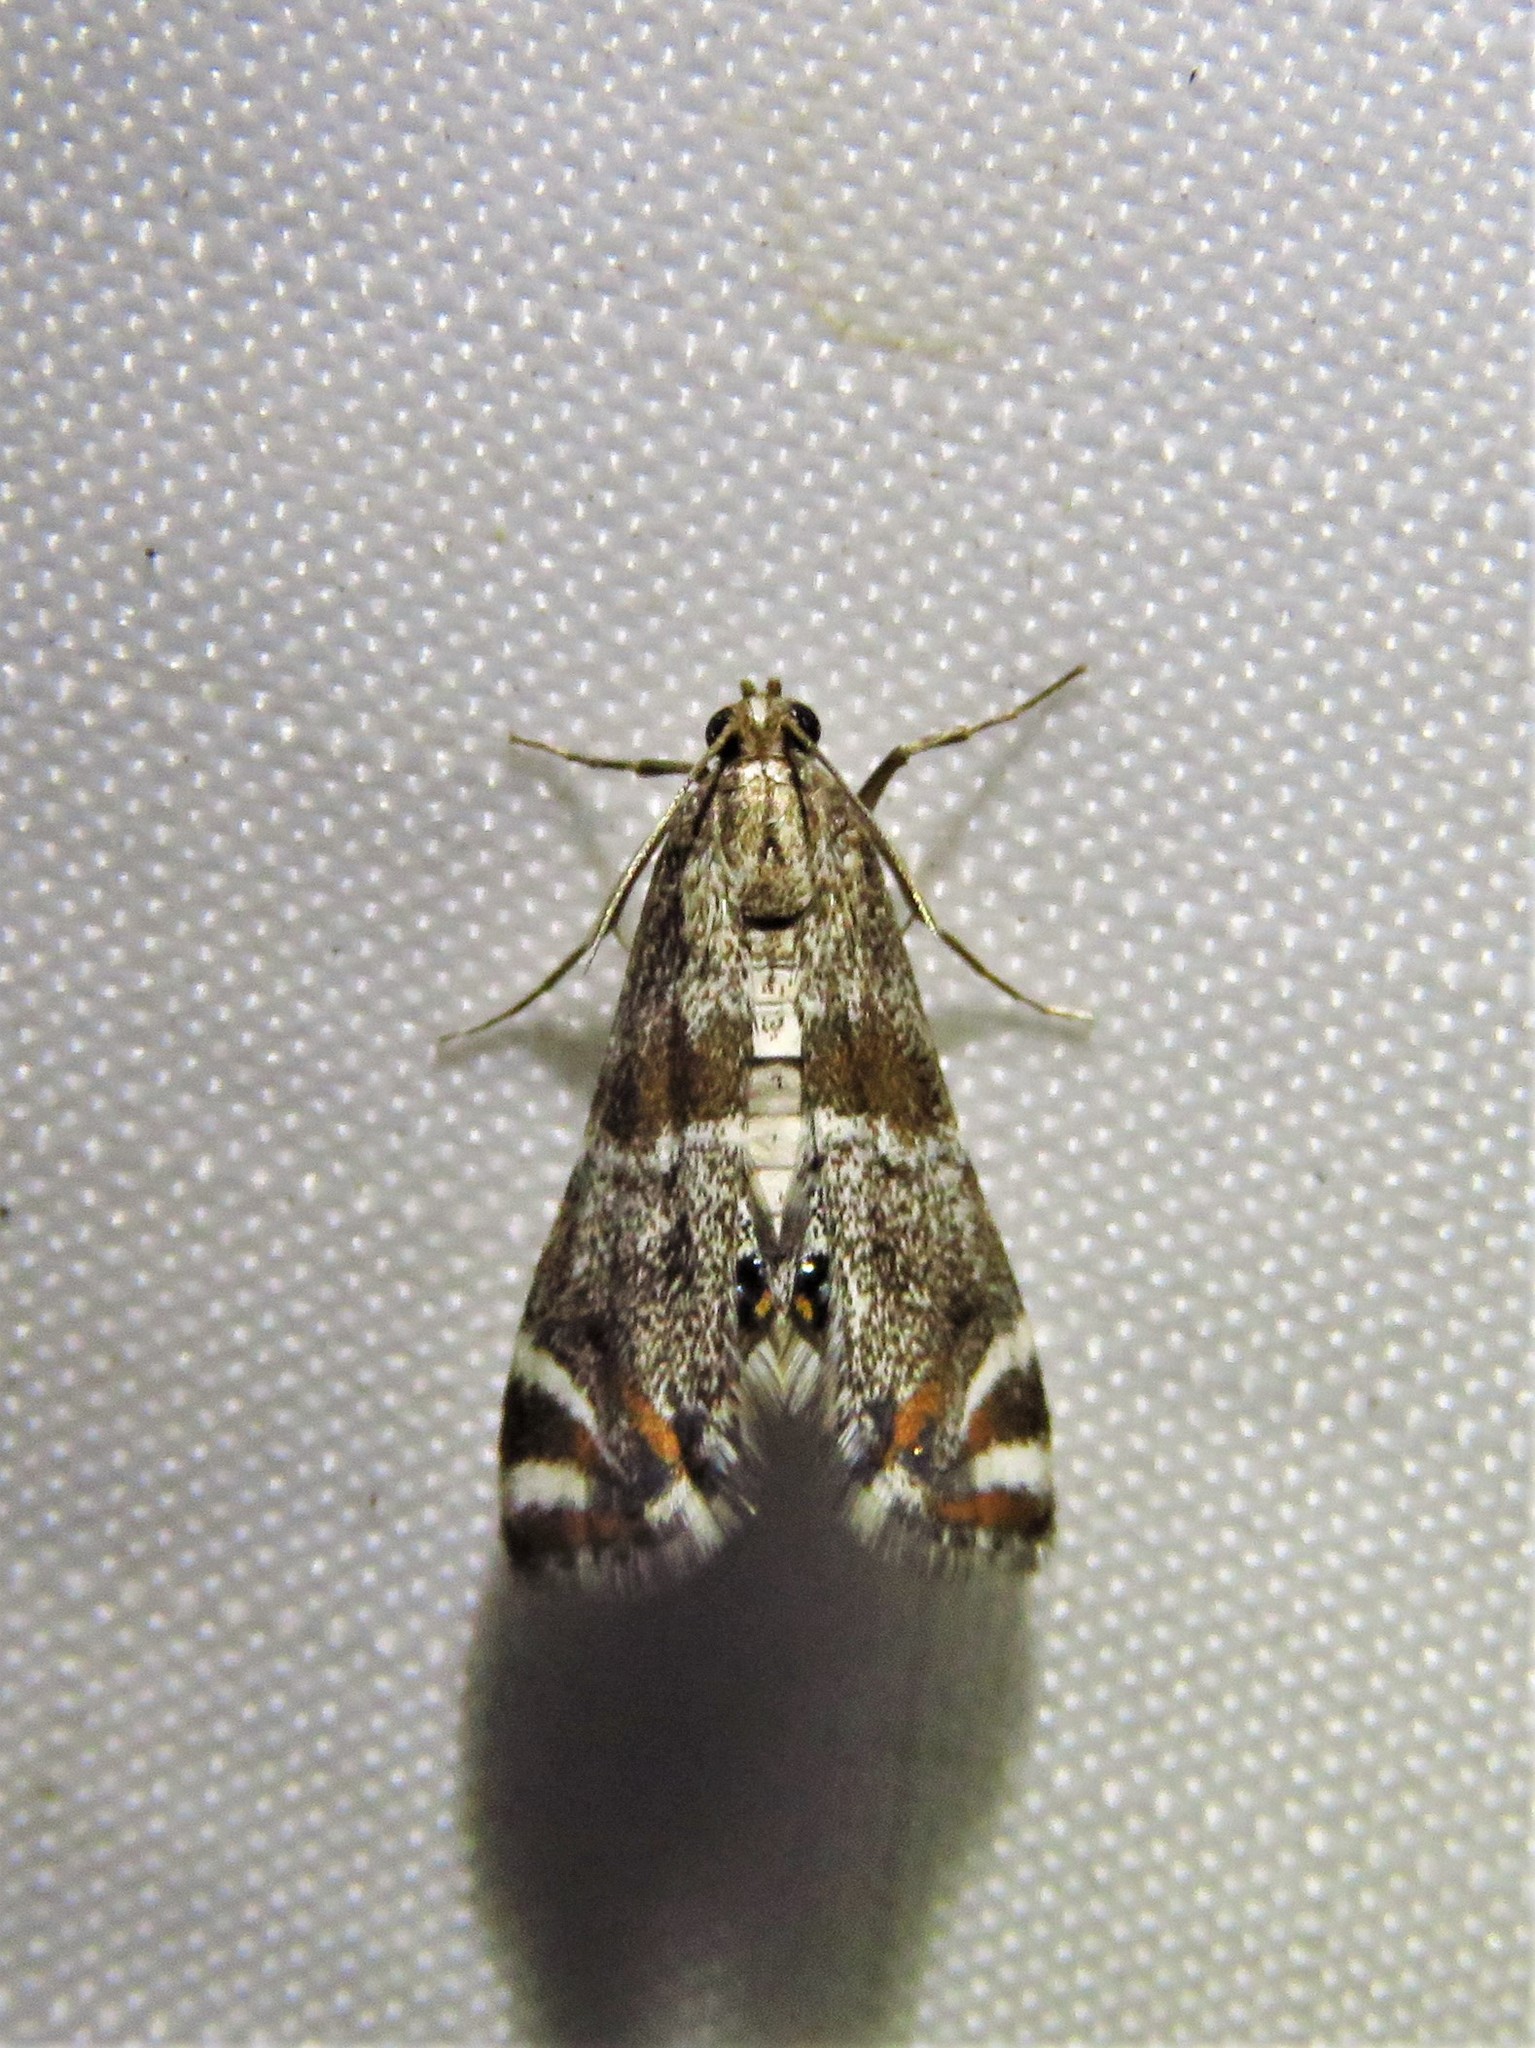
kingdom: Animalia
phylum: Arthropoda
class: Insecta
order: Lepidoptera
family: Crambidae
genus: Petrophila
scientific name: Petrophila jaliscalis
